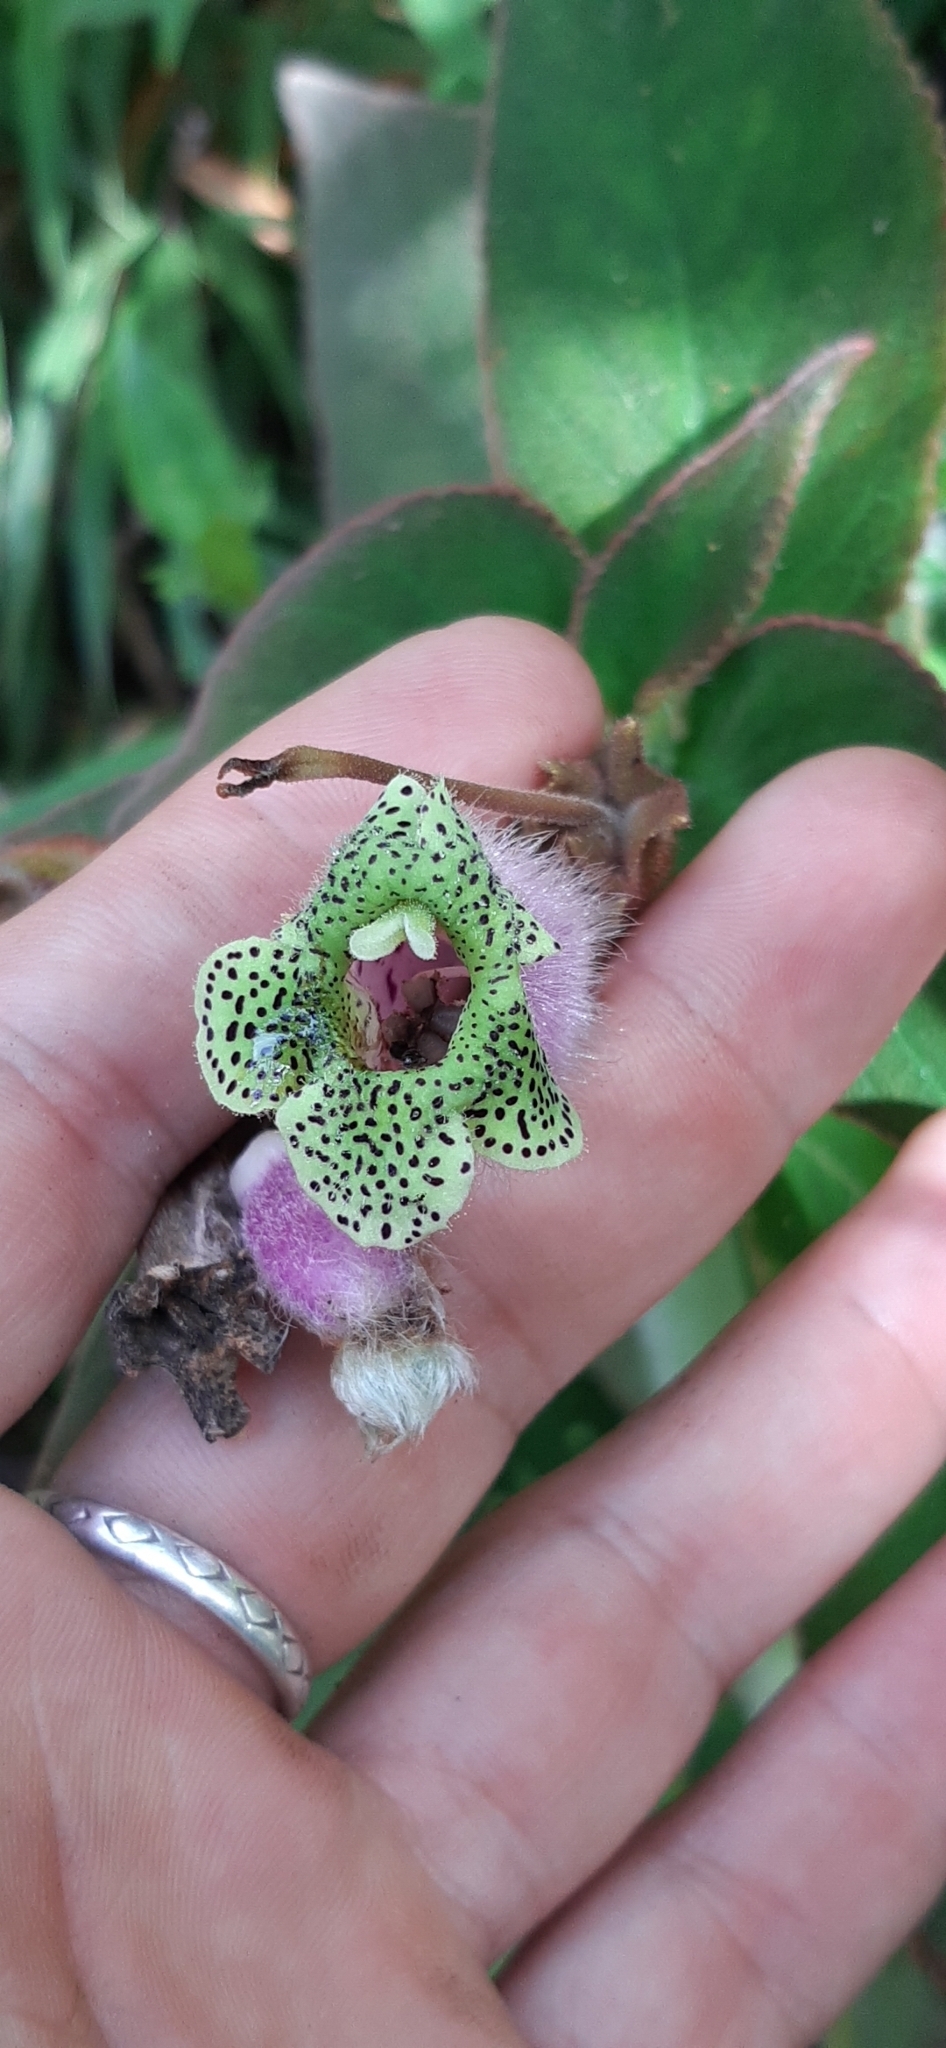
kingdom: Plantae
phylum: Tracheophyta
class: Magnoliopsida
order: Lamiales
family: Gesneriaceae
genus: Kohleria
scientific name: Kohleria warszewiczii
